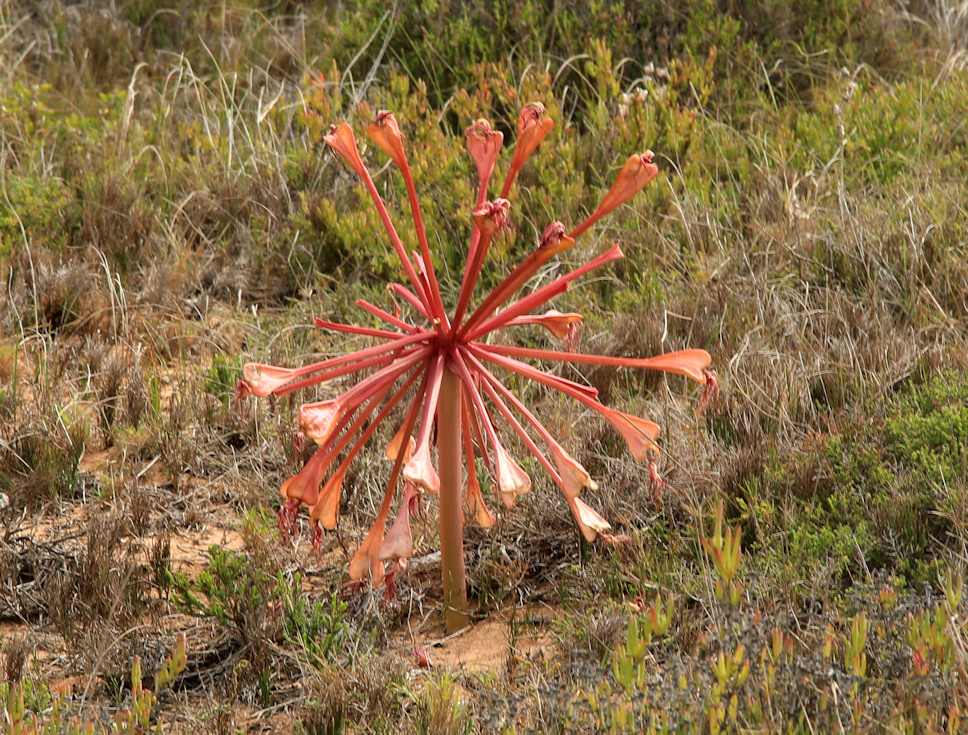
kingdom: Plantae
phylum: Tracheophyta
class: Liliopsida
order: Asparagales
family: Amaryllidaceae
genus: Brunsvigia
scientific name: Brunsvigia orientalis
